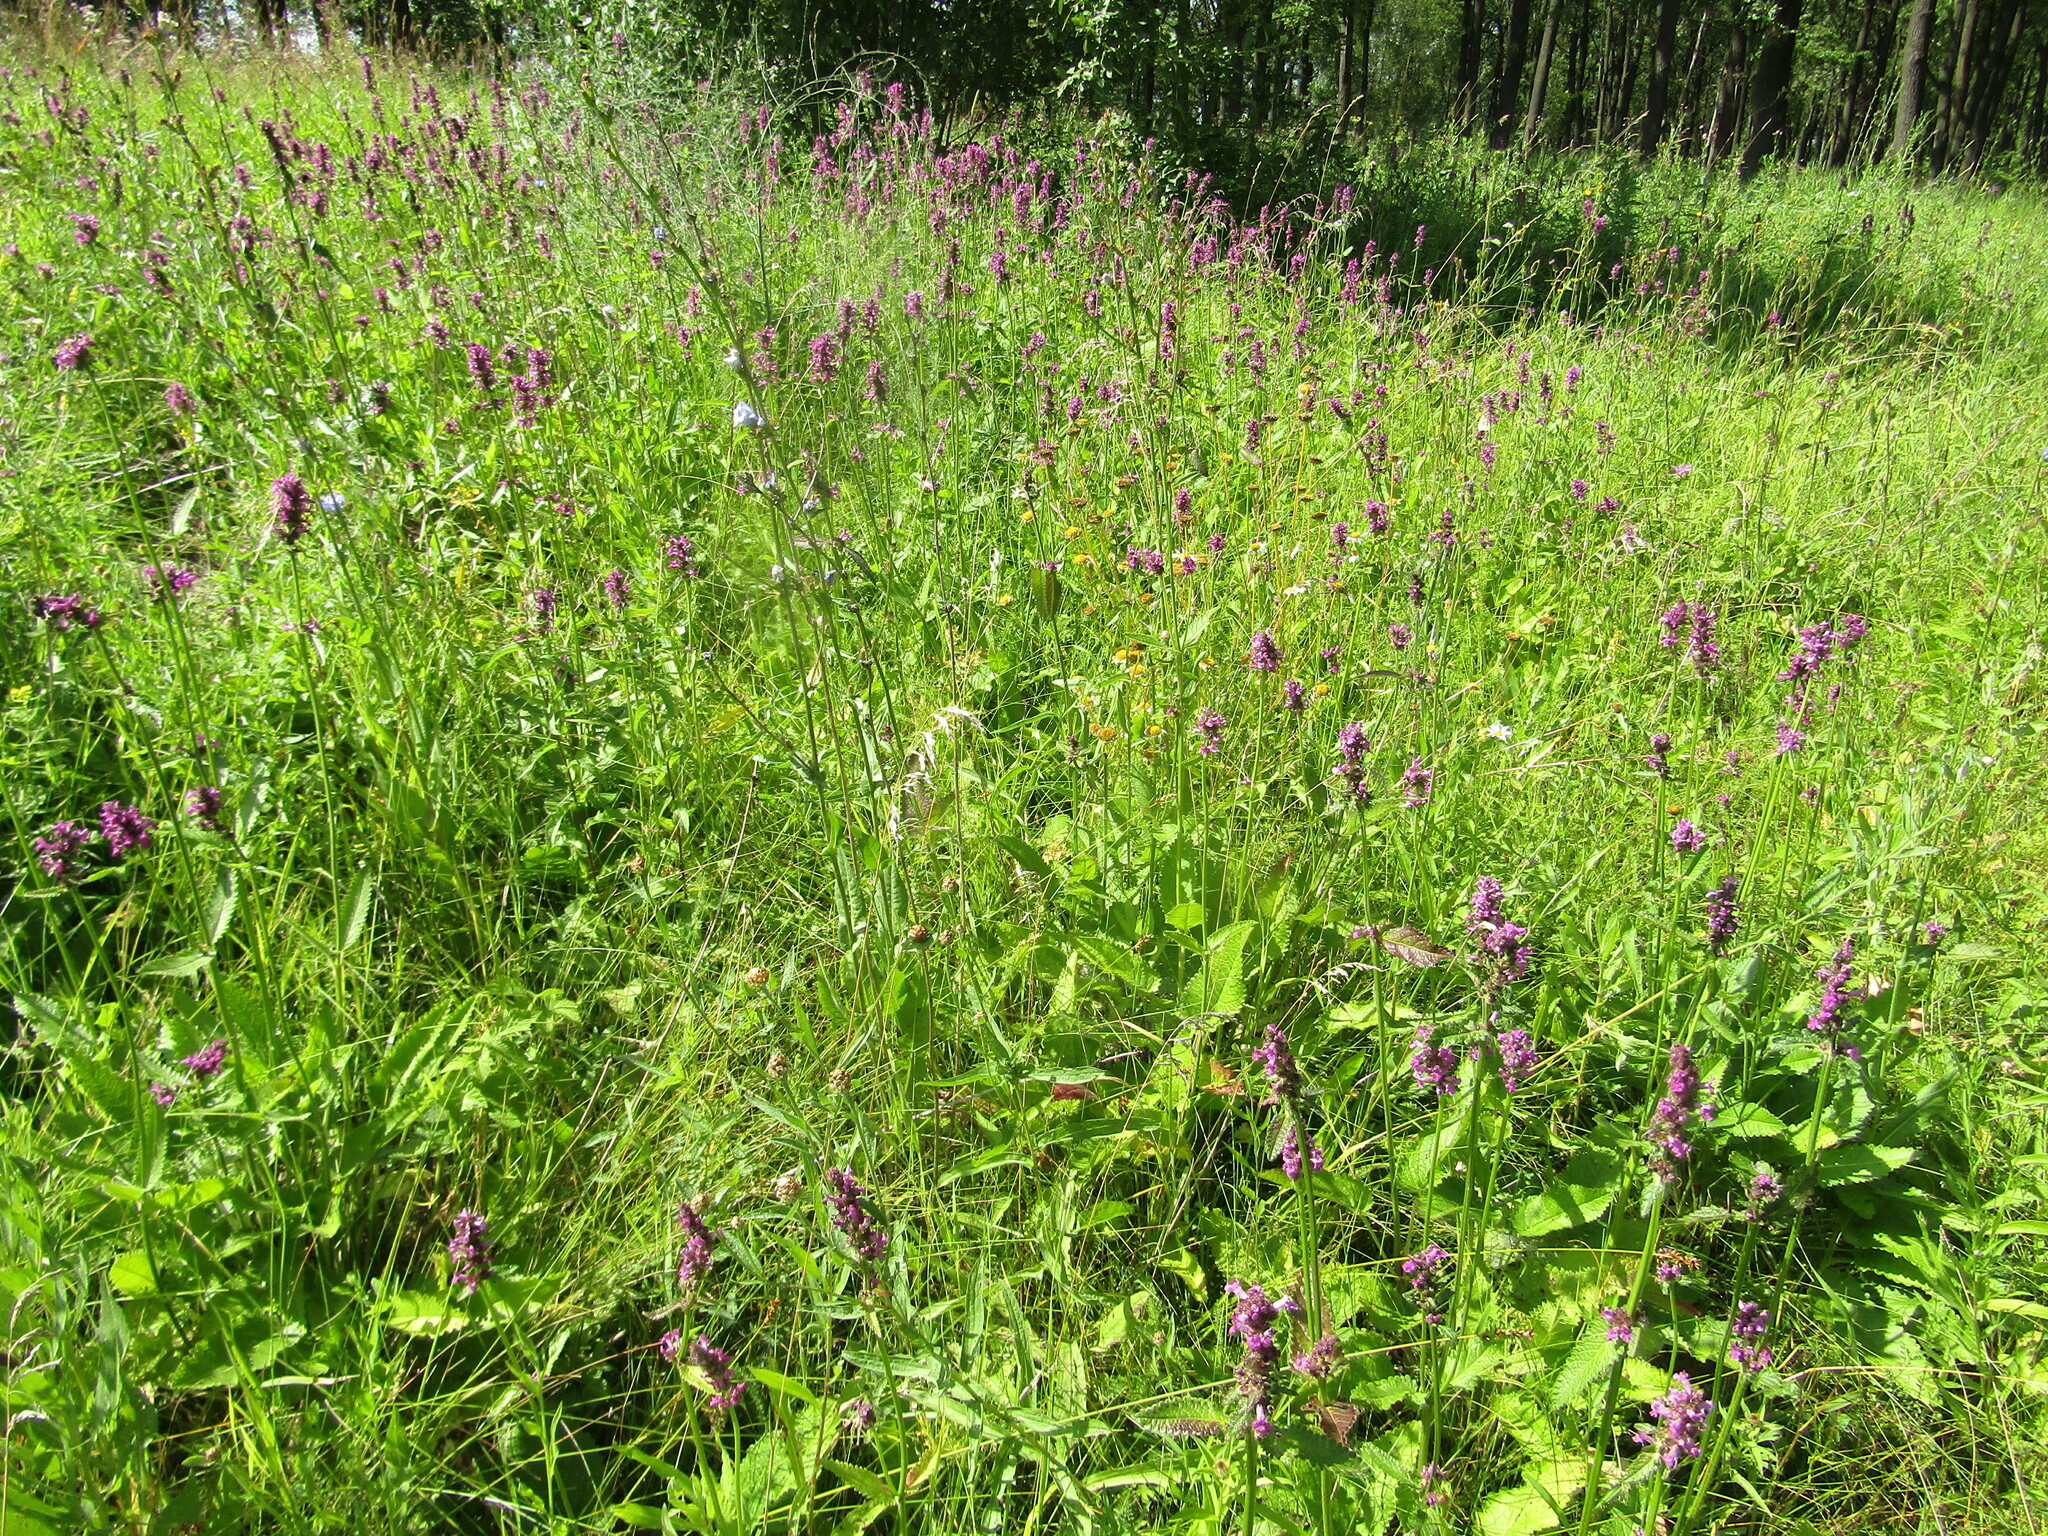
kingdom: Plantae
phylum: Tracheophyta
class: Magnoliopsida
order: Lamiales
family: Lamiaceae
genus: Betonica
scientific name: Betonica officinalis
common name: Bishop's-wort
